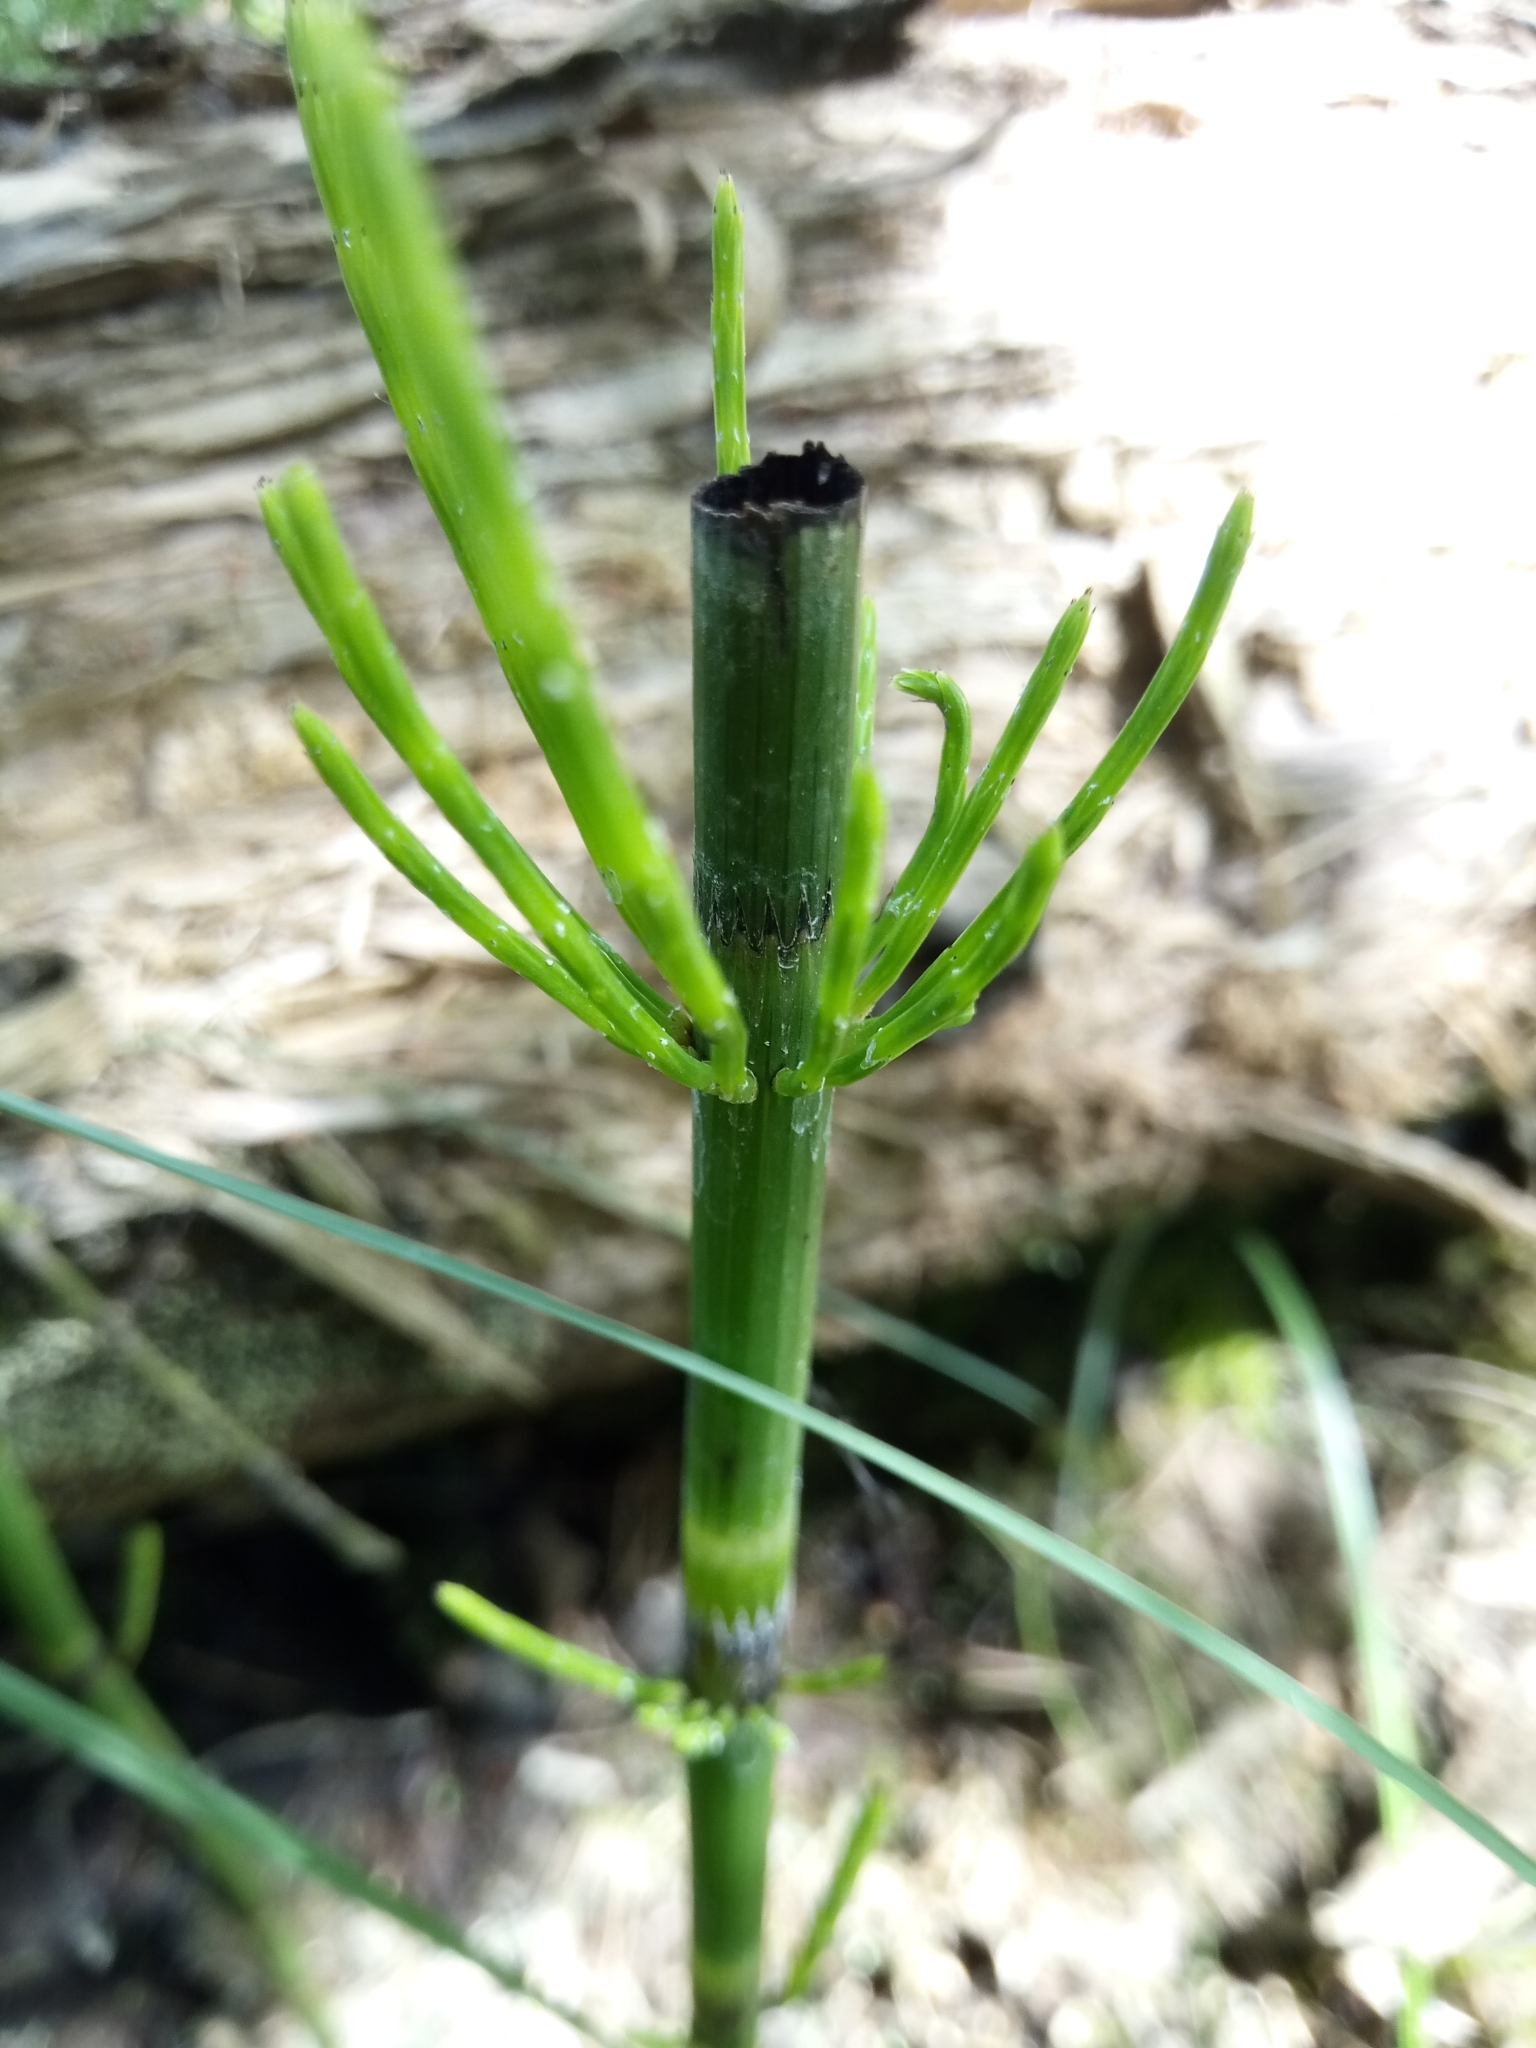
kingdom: Plantae
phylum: Tracheophyta
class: Polypodiopsida
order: Equisetales
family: Equisetaceae
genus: Equisetum
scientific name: Equisetum fluviatile
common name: Water horsetail
